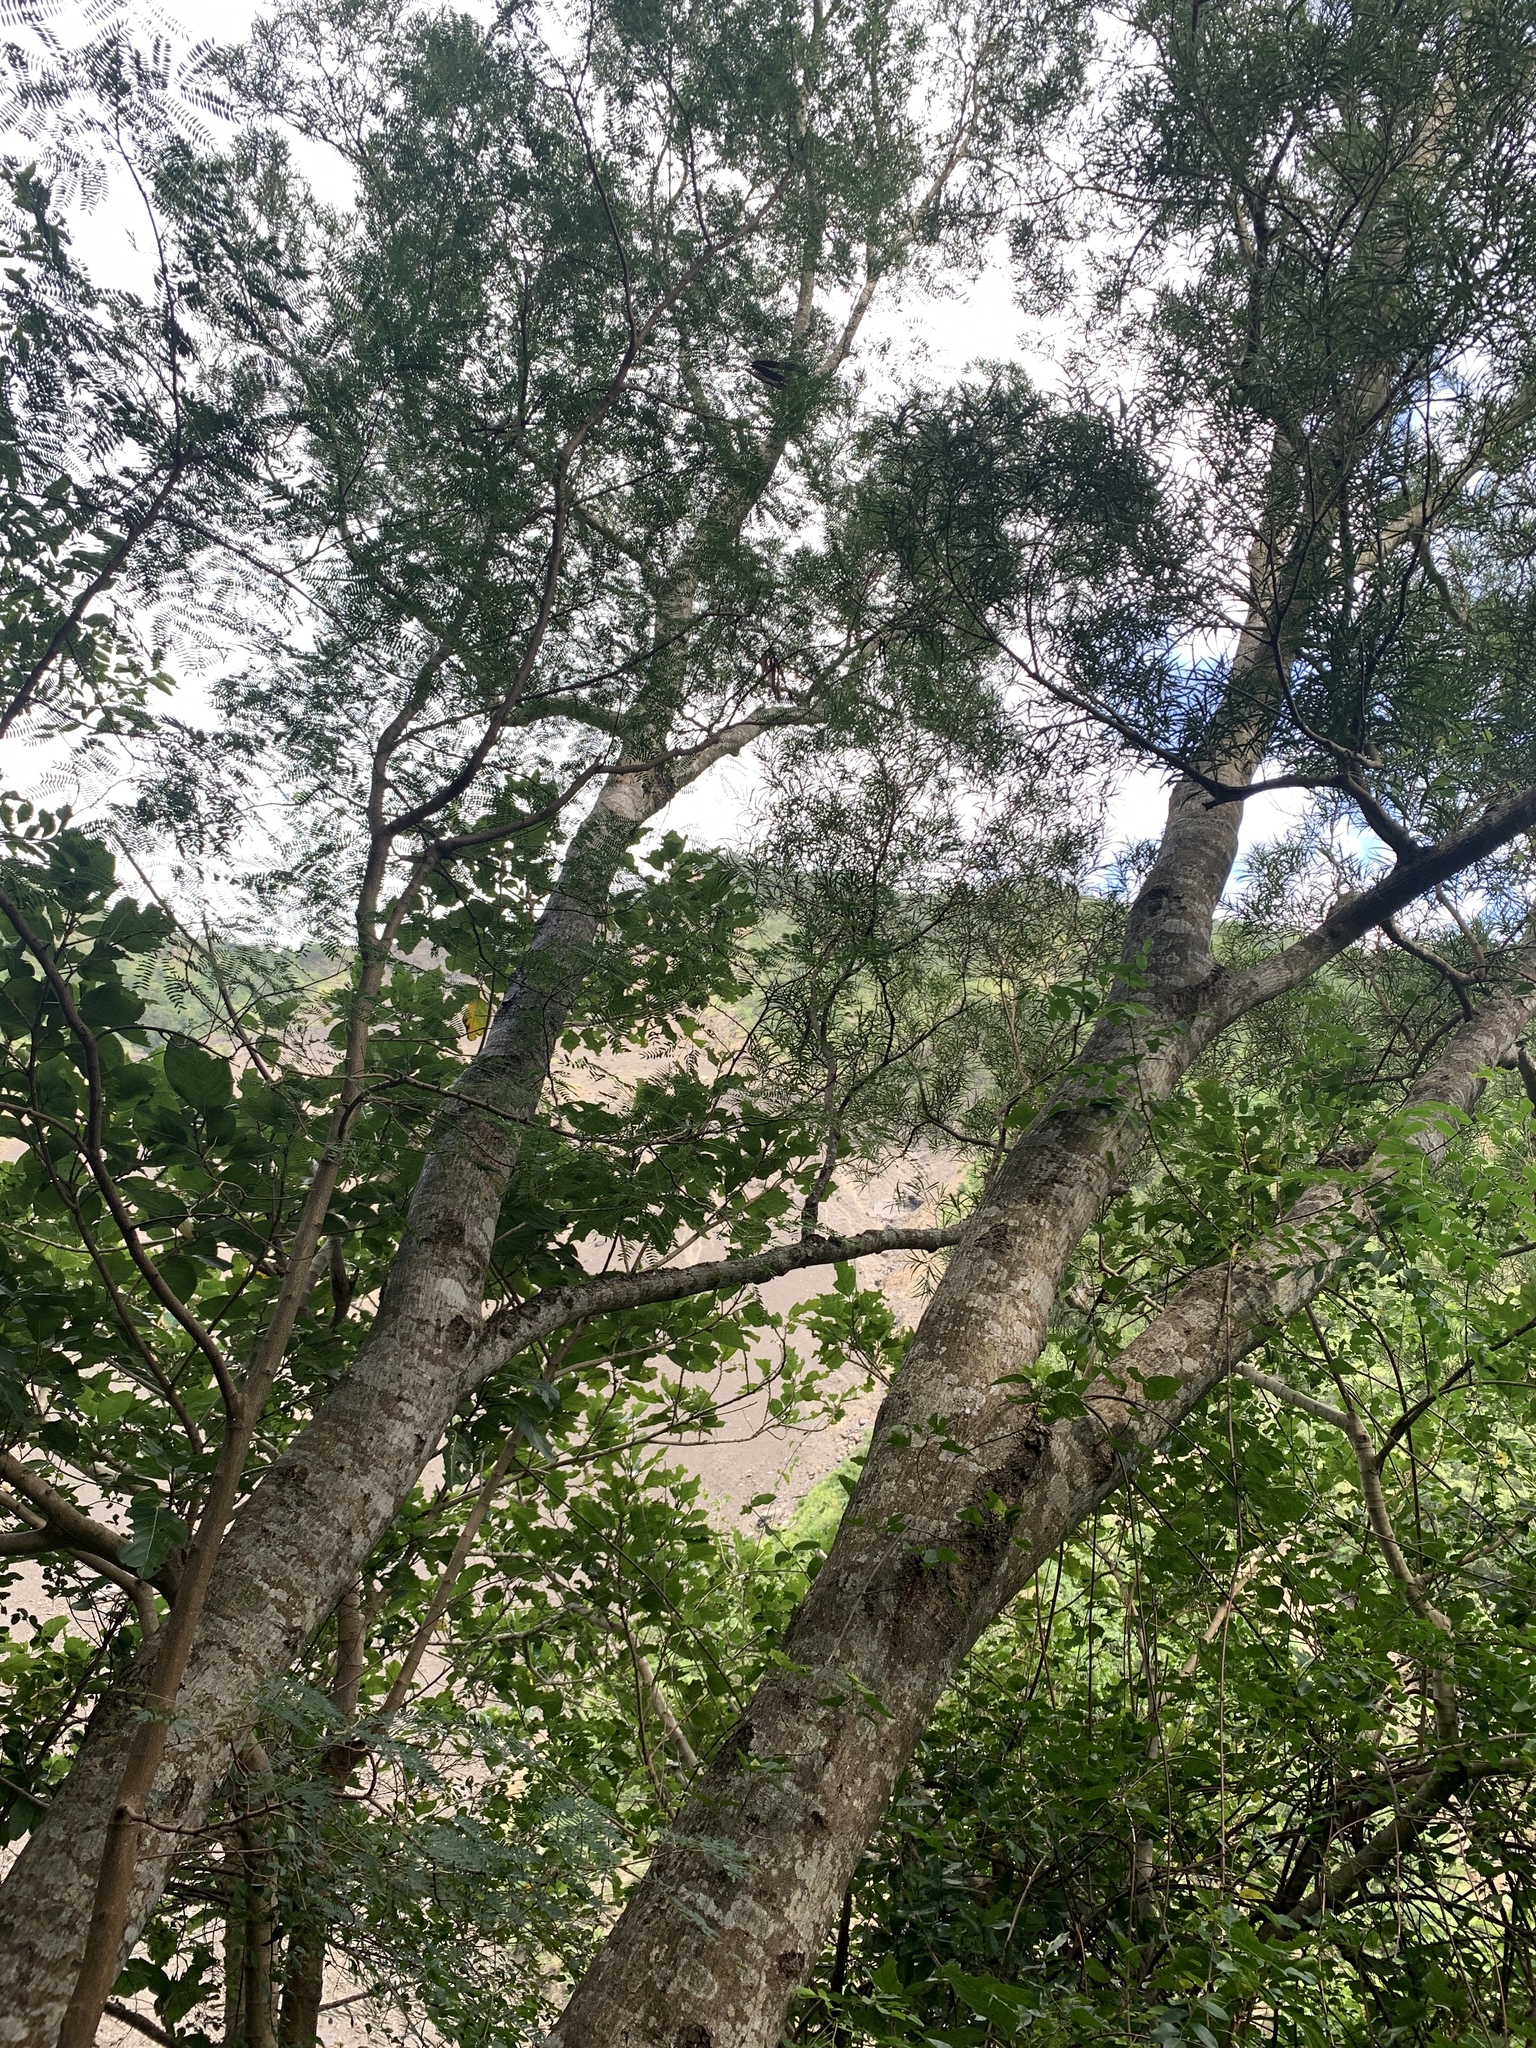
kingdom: Plantae
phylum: Tracheophyta
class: Magnoliopsida
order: Fabales
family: Fabaceae
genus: Acacia
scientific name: Acacia confusa
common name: Formosan koa
